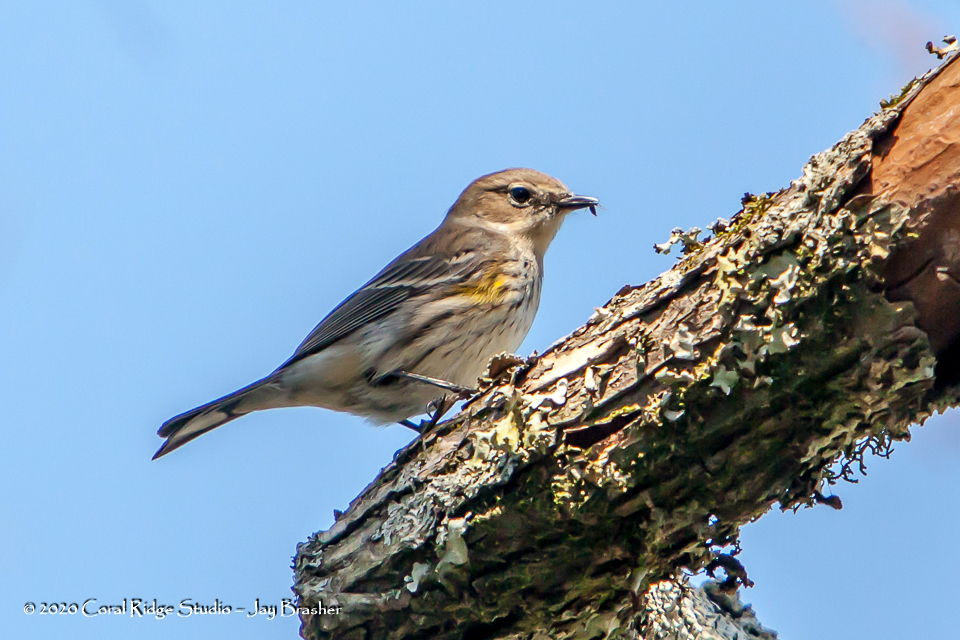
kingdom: Animalia
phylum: Chordata
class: Aves
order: Passeriformes
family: Parulidae
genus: Setophaga
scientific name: Setophaga coronata
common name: Myrtle warbler
